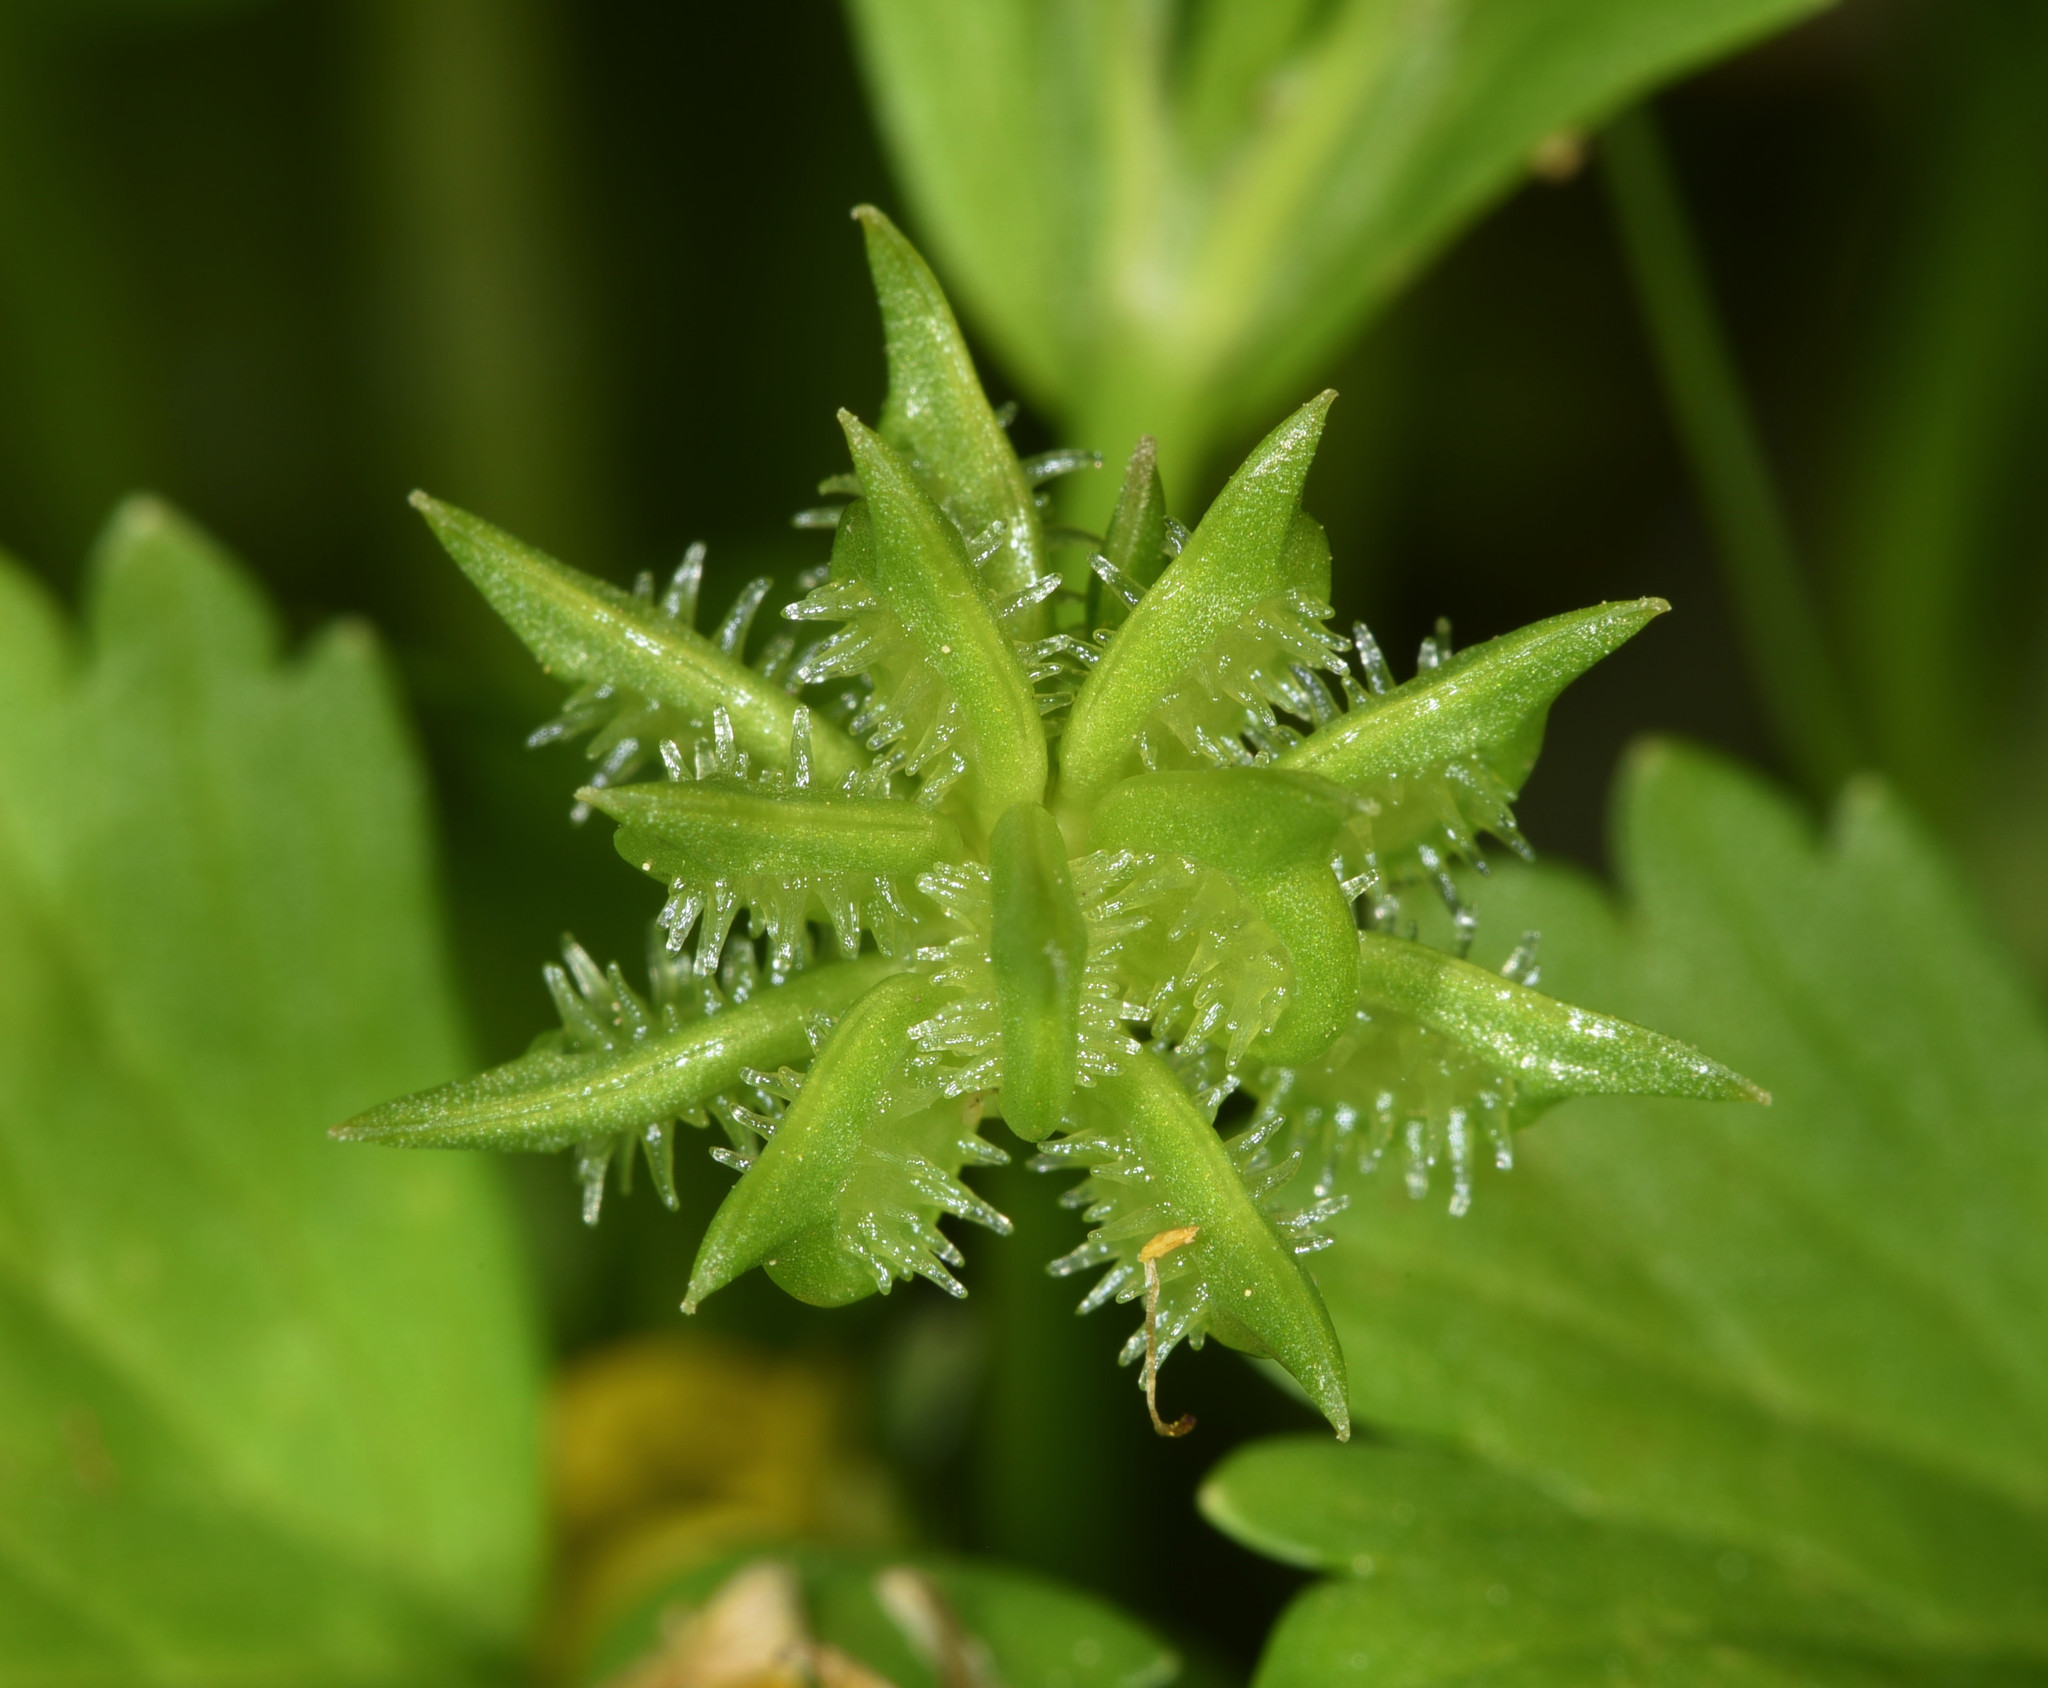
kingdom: Plantae
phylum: Tracheophyta
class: Magnoliopsida
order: Ranunculales
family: Ranunculaceae
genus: Ranunculus
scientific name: Ranunculus muricatus
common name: Rough-fruited buttercup
